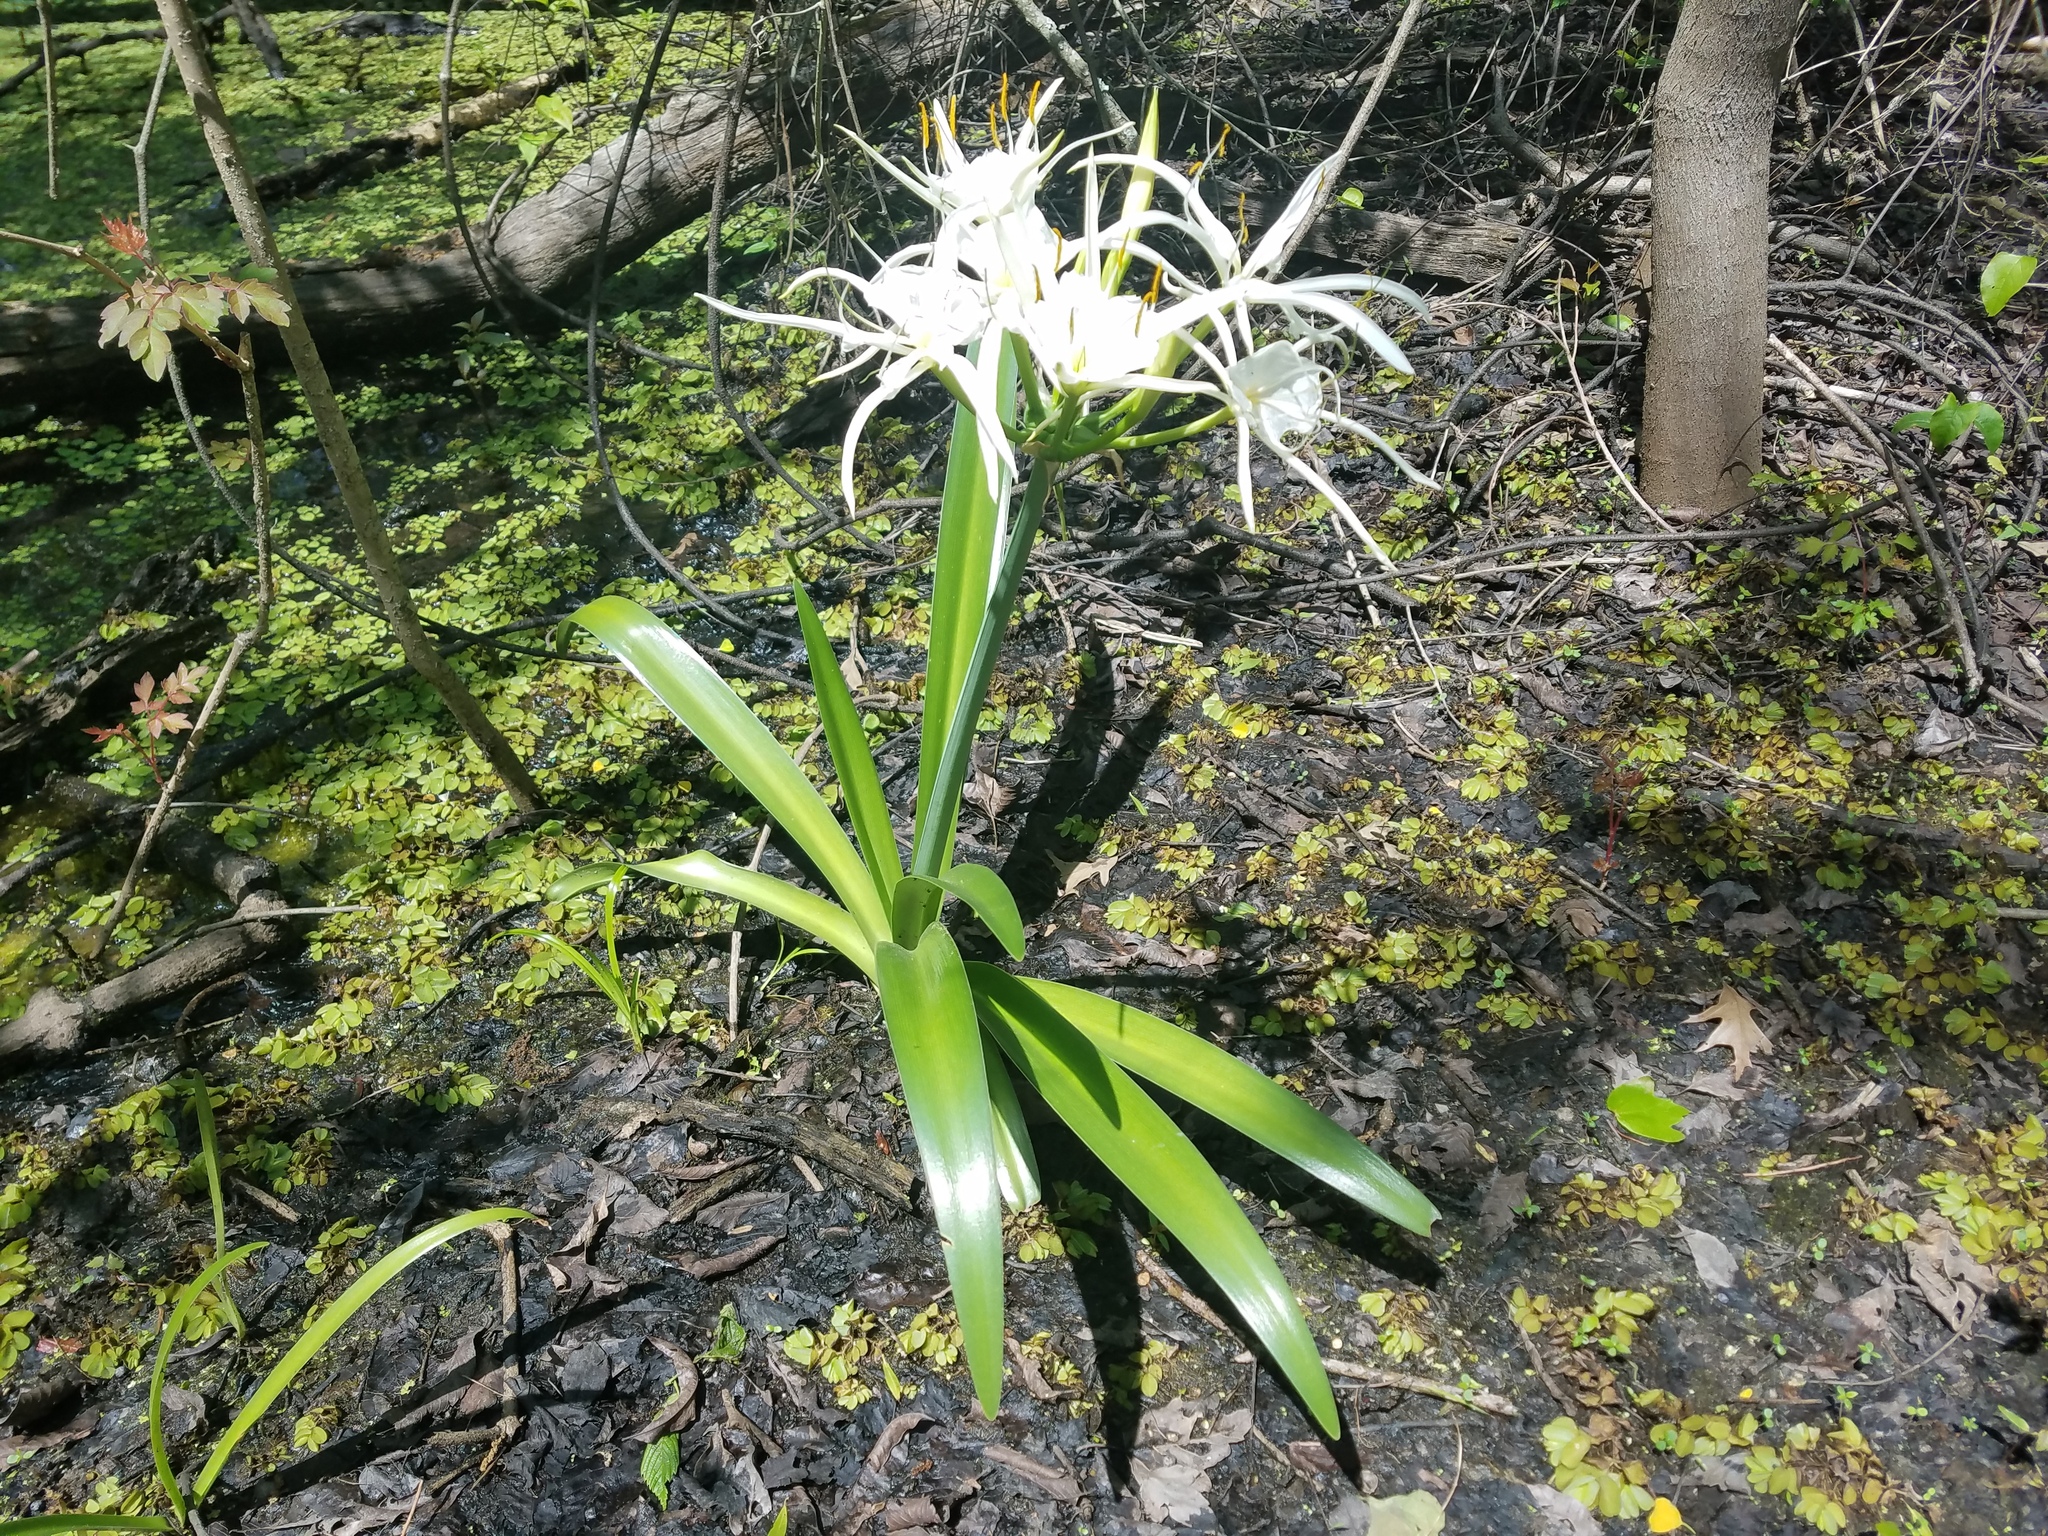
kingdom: Plantae
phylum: Tracheophyta
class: Liliopsida
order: Asparagales
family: Amaryllidaceae
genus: Hymenocallis
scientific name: Hymenocallis liriosme
